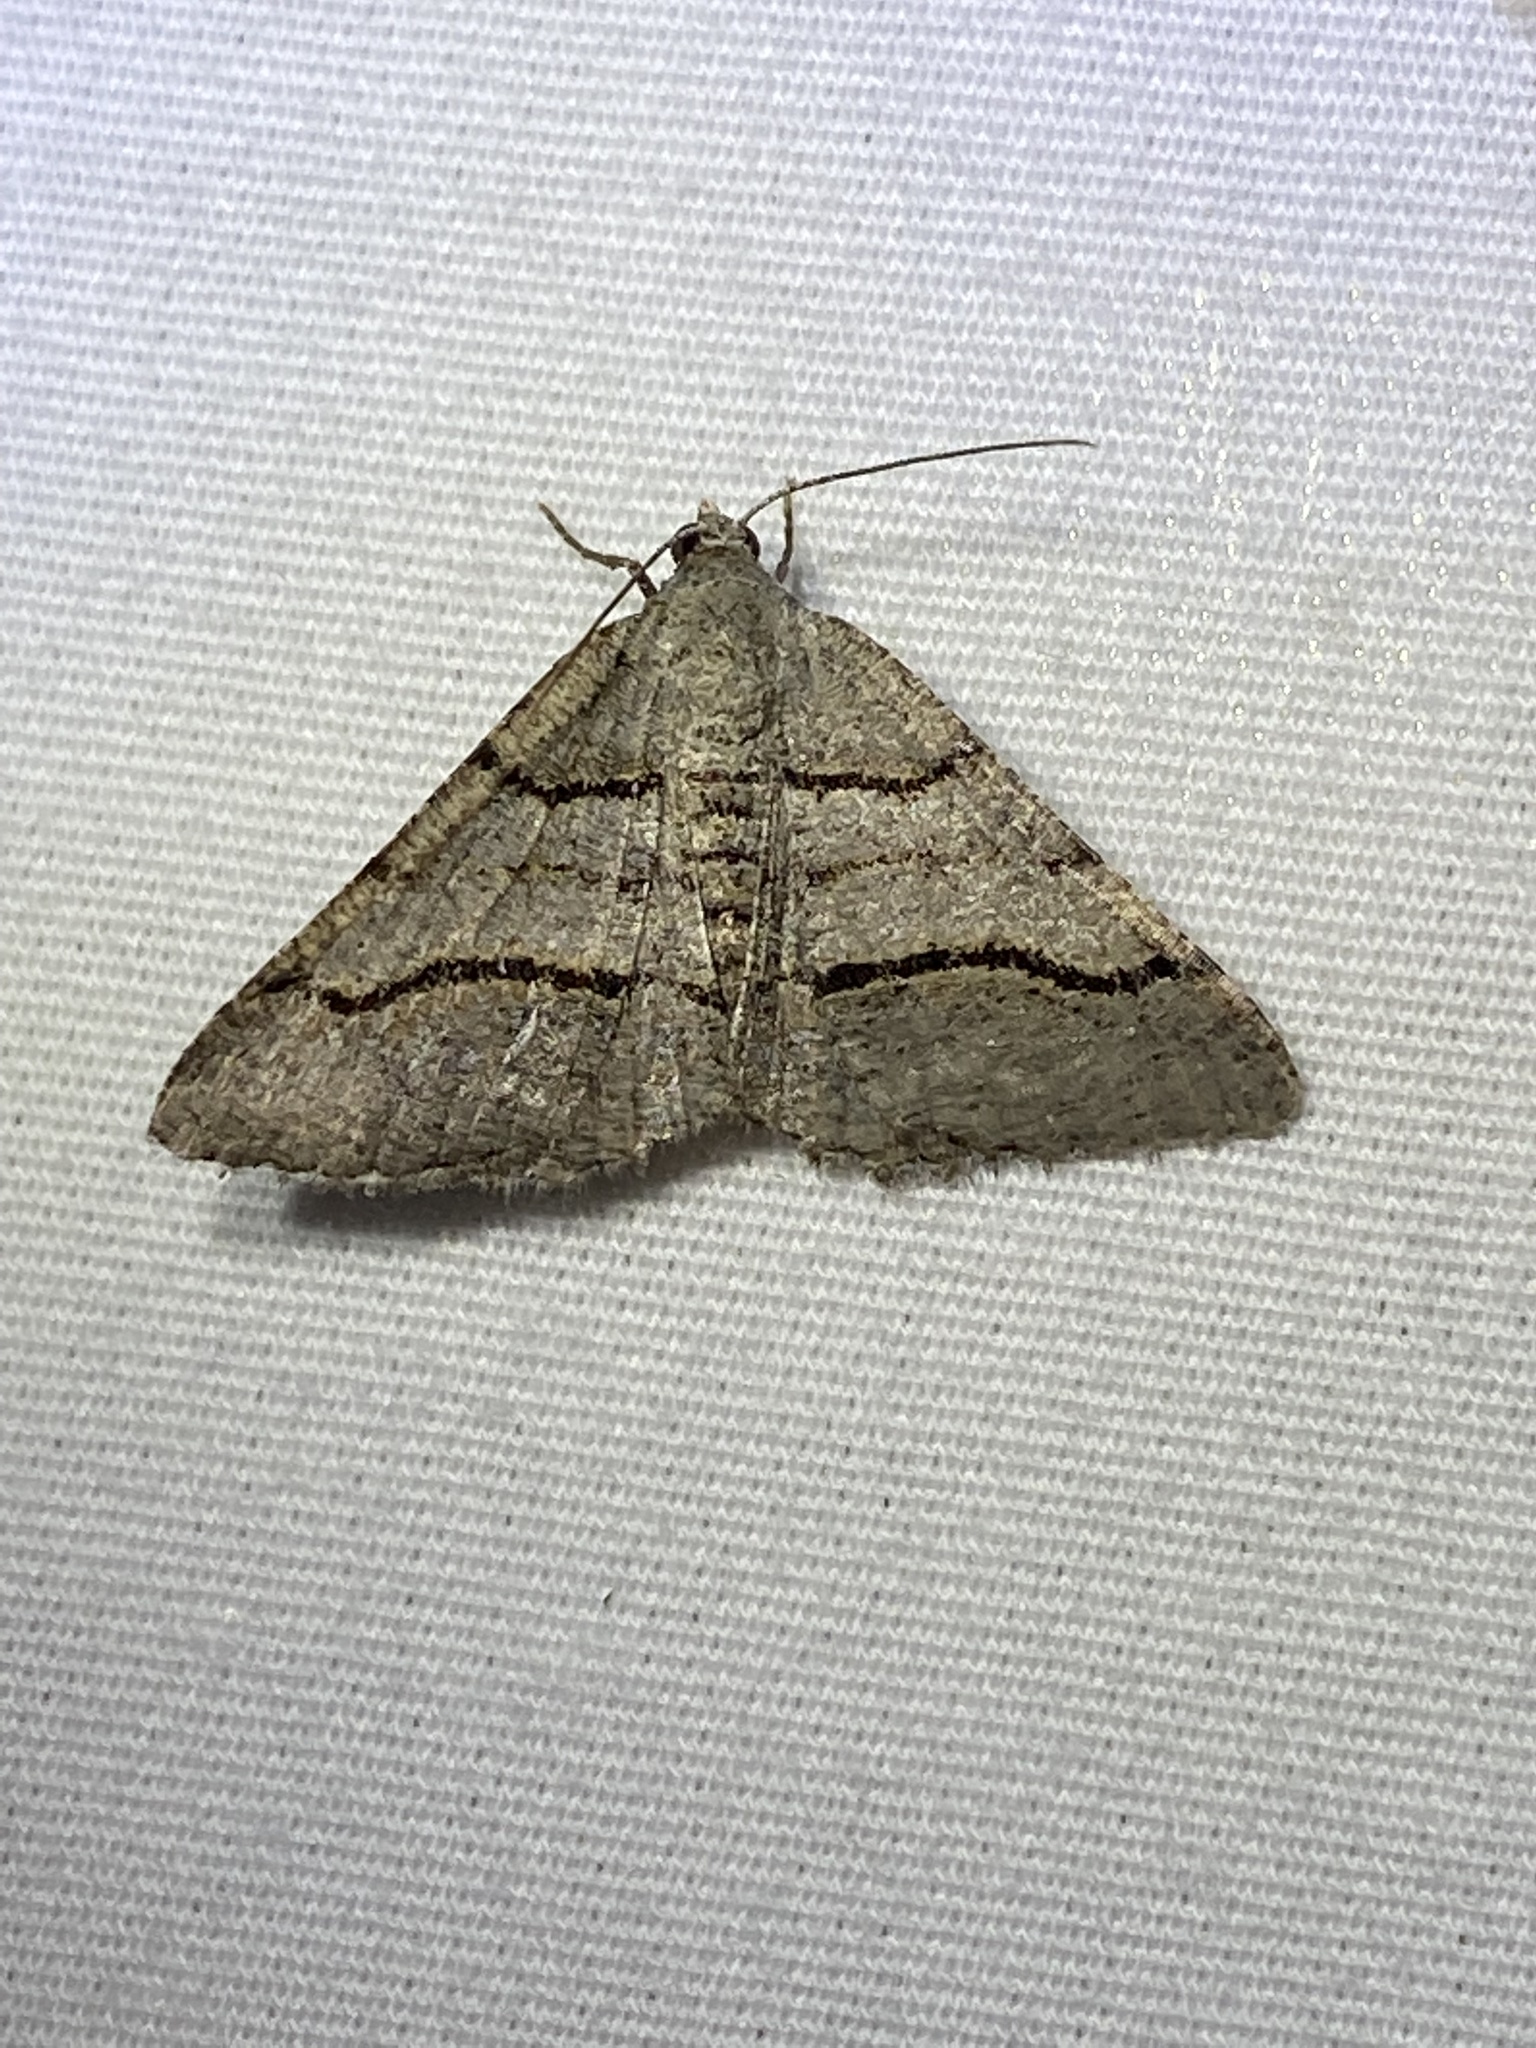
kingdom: Animalia
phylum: Arthropoda
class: Insecta
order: Lepidoptera
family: Geometridae
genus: Digrammia
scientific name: Digrammia continuata
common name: Curve-lined angle
